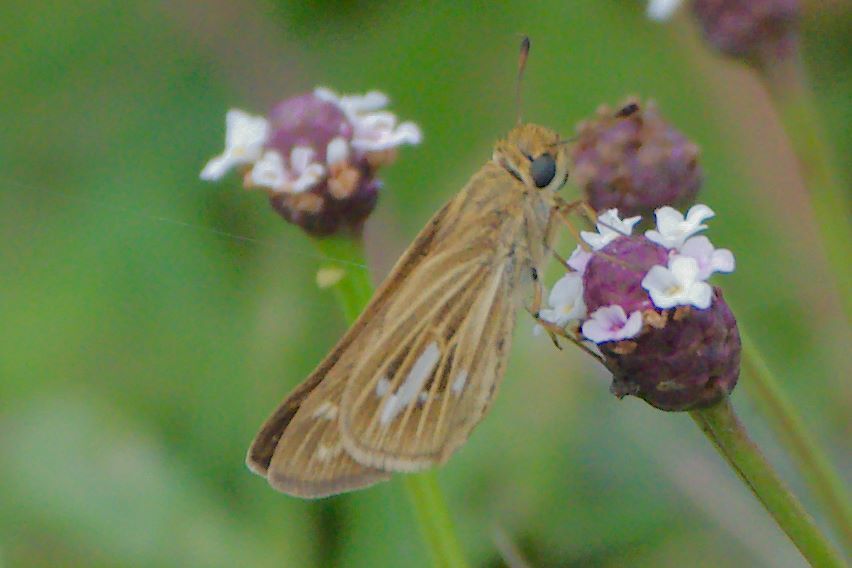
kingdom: Animalia
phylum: Arthropoda
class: Insecta
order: Lepidoptera
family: Hesperiidae
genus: Panoquina
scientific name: Panoquina panoquin
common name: Salt marsh skipper
